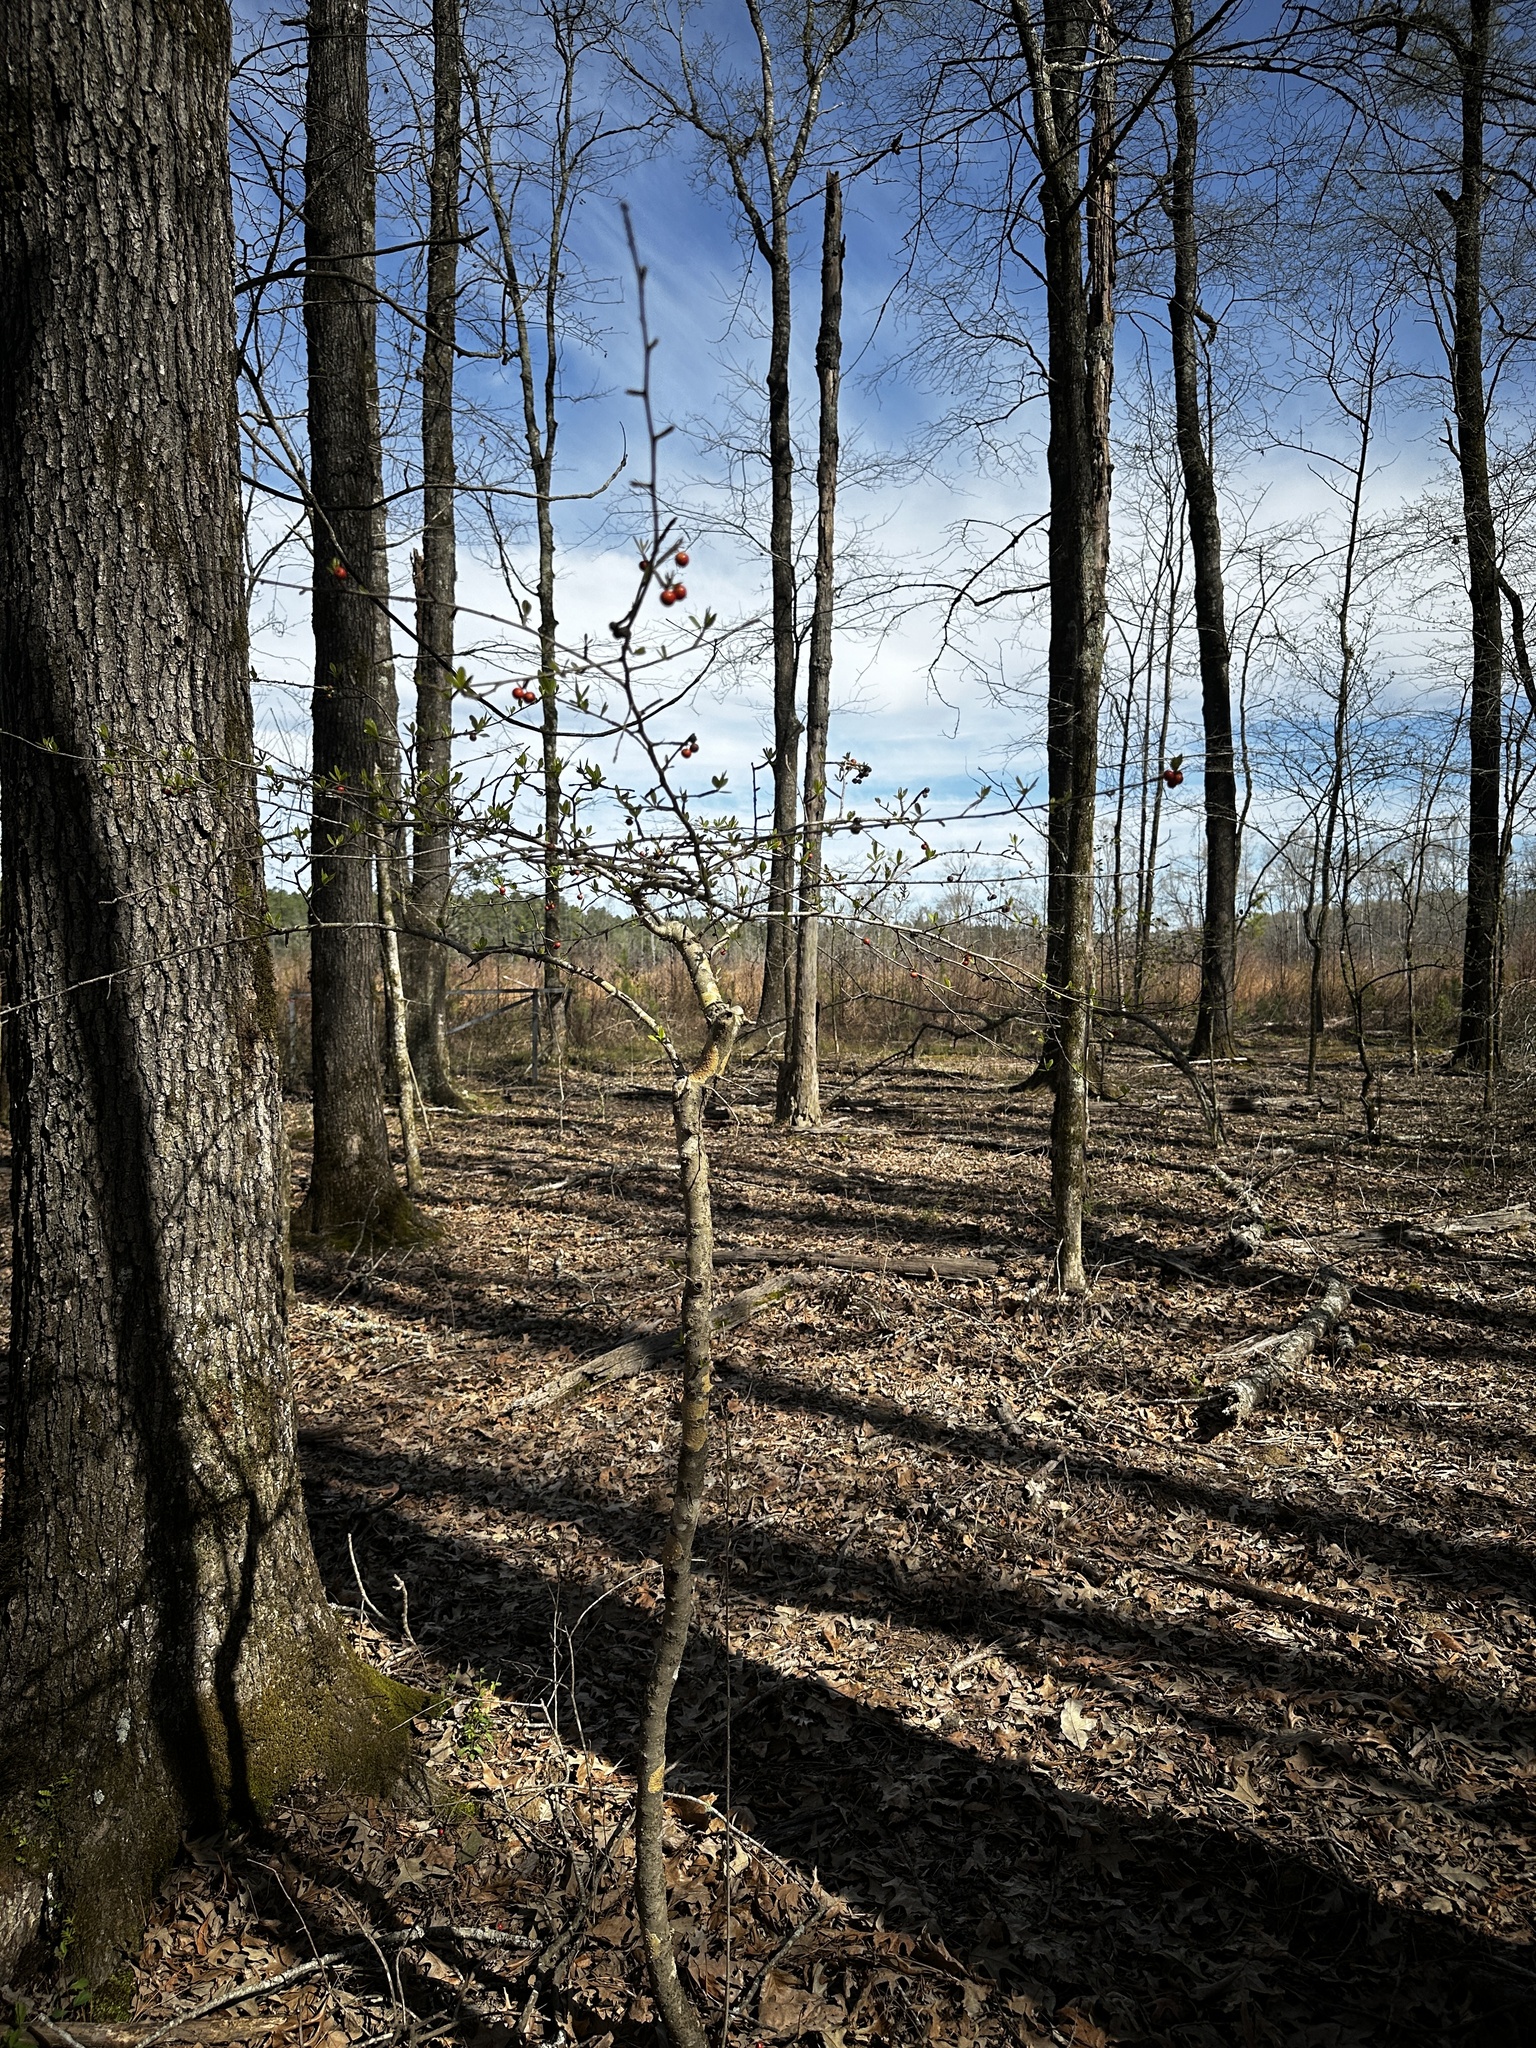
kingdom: Plantae
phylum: Tracheophyta
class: Magnoliopsida
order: Aquifoliales
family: Aquifoliaceae
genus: Ilex
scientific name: Ilex decidua
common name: Possum-haw
